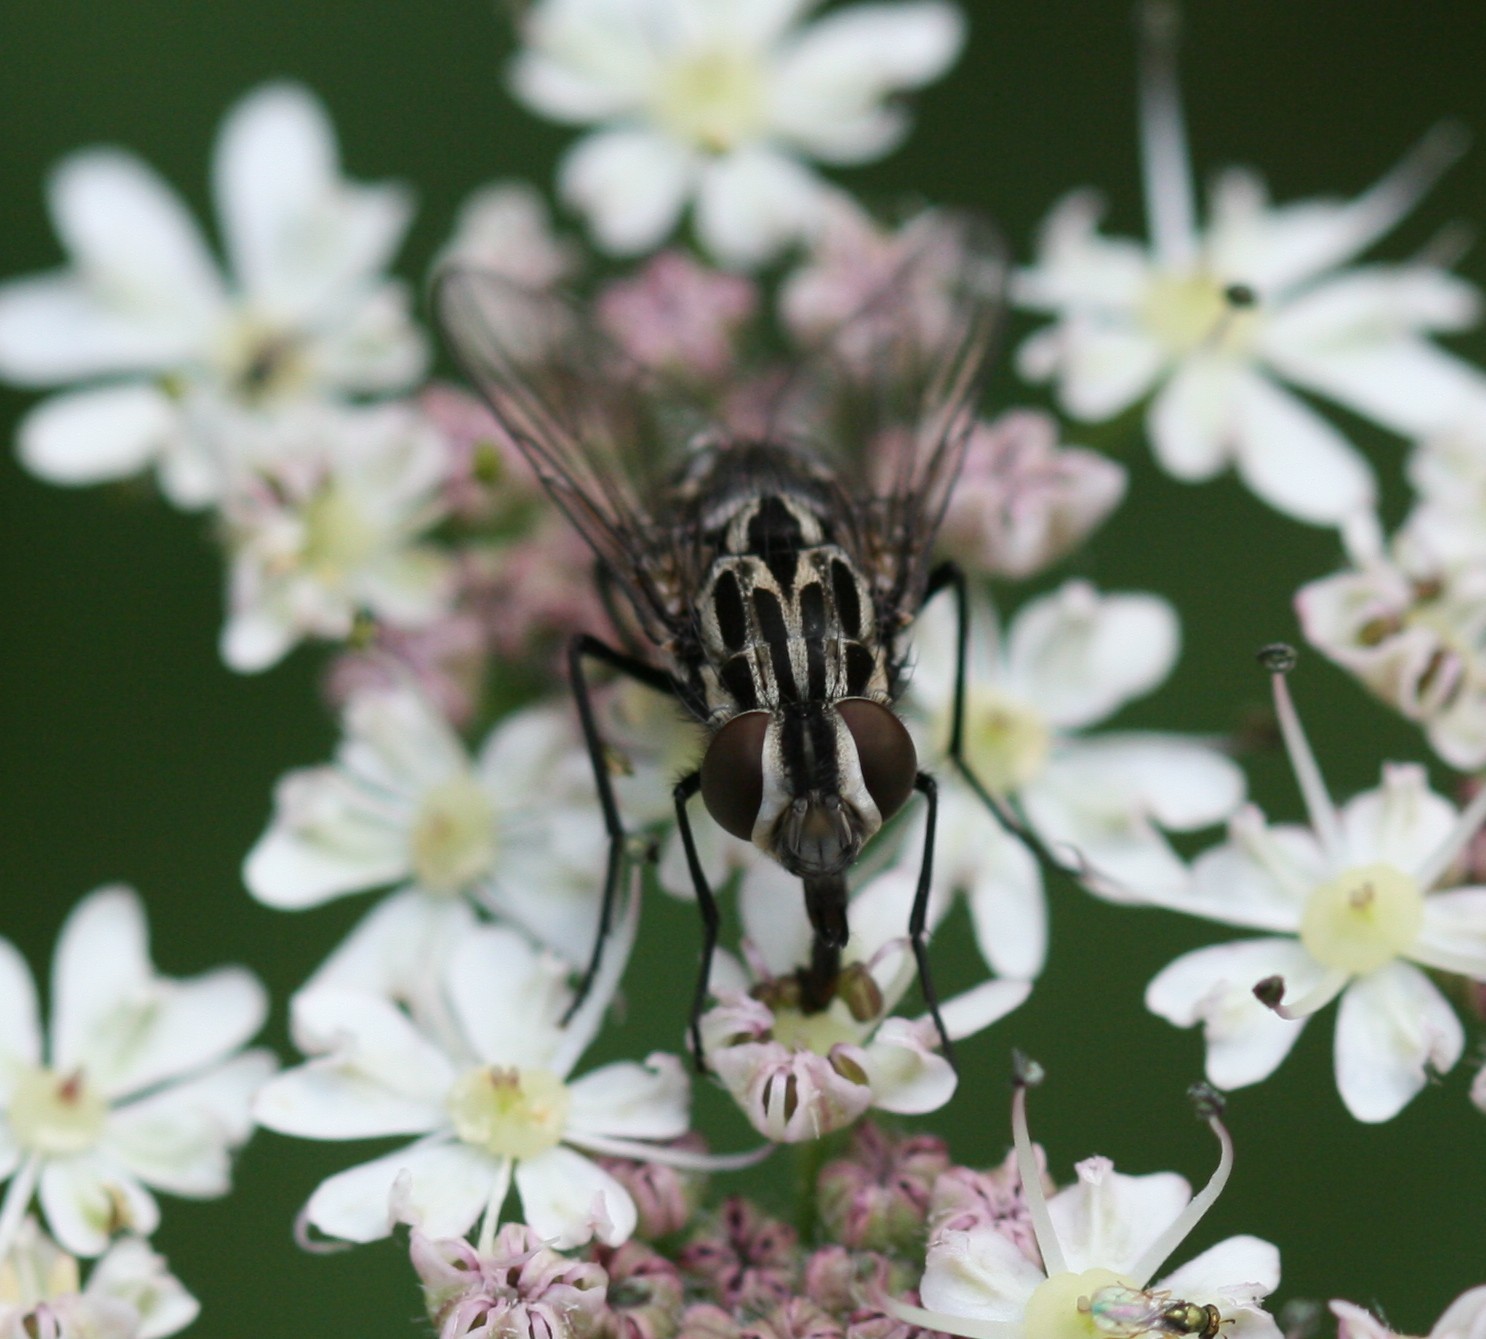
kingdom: Animalia
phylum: Arthropoda
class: Insecta
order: Diptera
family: Muscidae
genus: Graphomya
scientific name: Graphomya maculata
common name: Muscid fly
